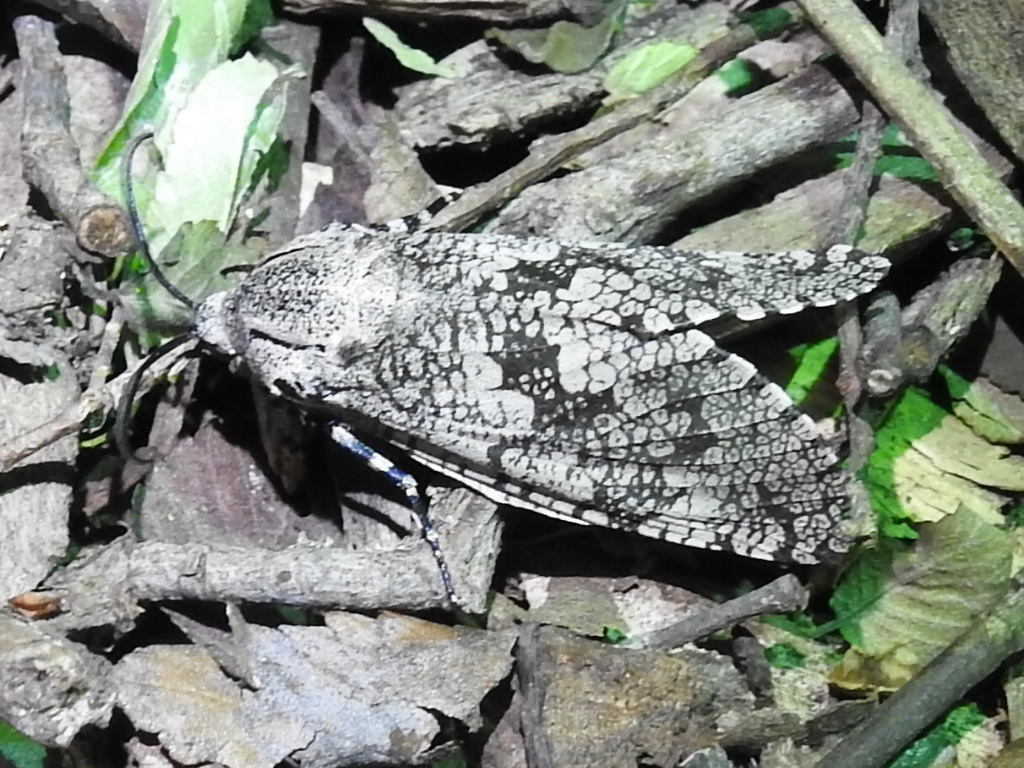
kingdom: Animalia
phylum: Arthropoda
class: Insecta
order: Lepidoptera
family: Cossidae
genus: Prionoxystus
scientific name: Prionoxystus robiniae
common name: Carpenterworm
